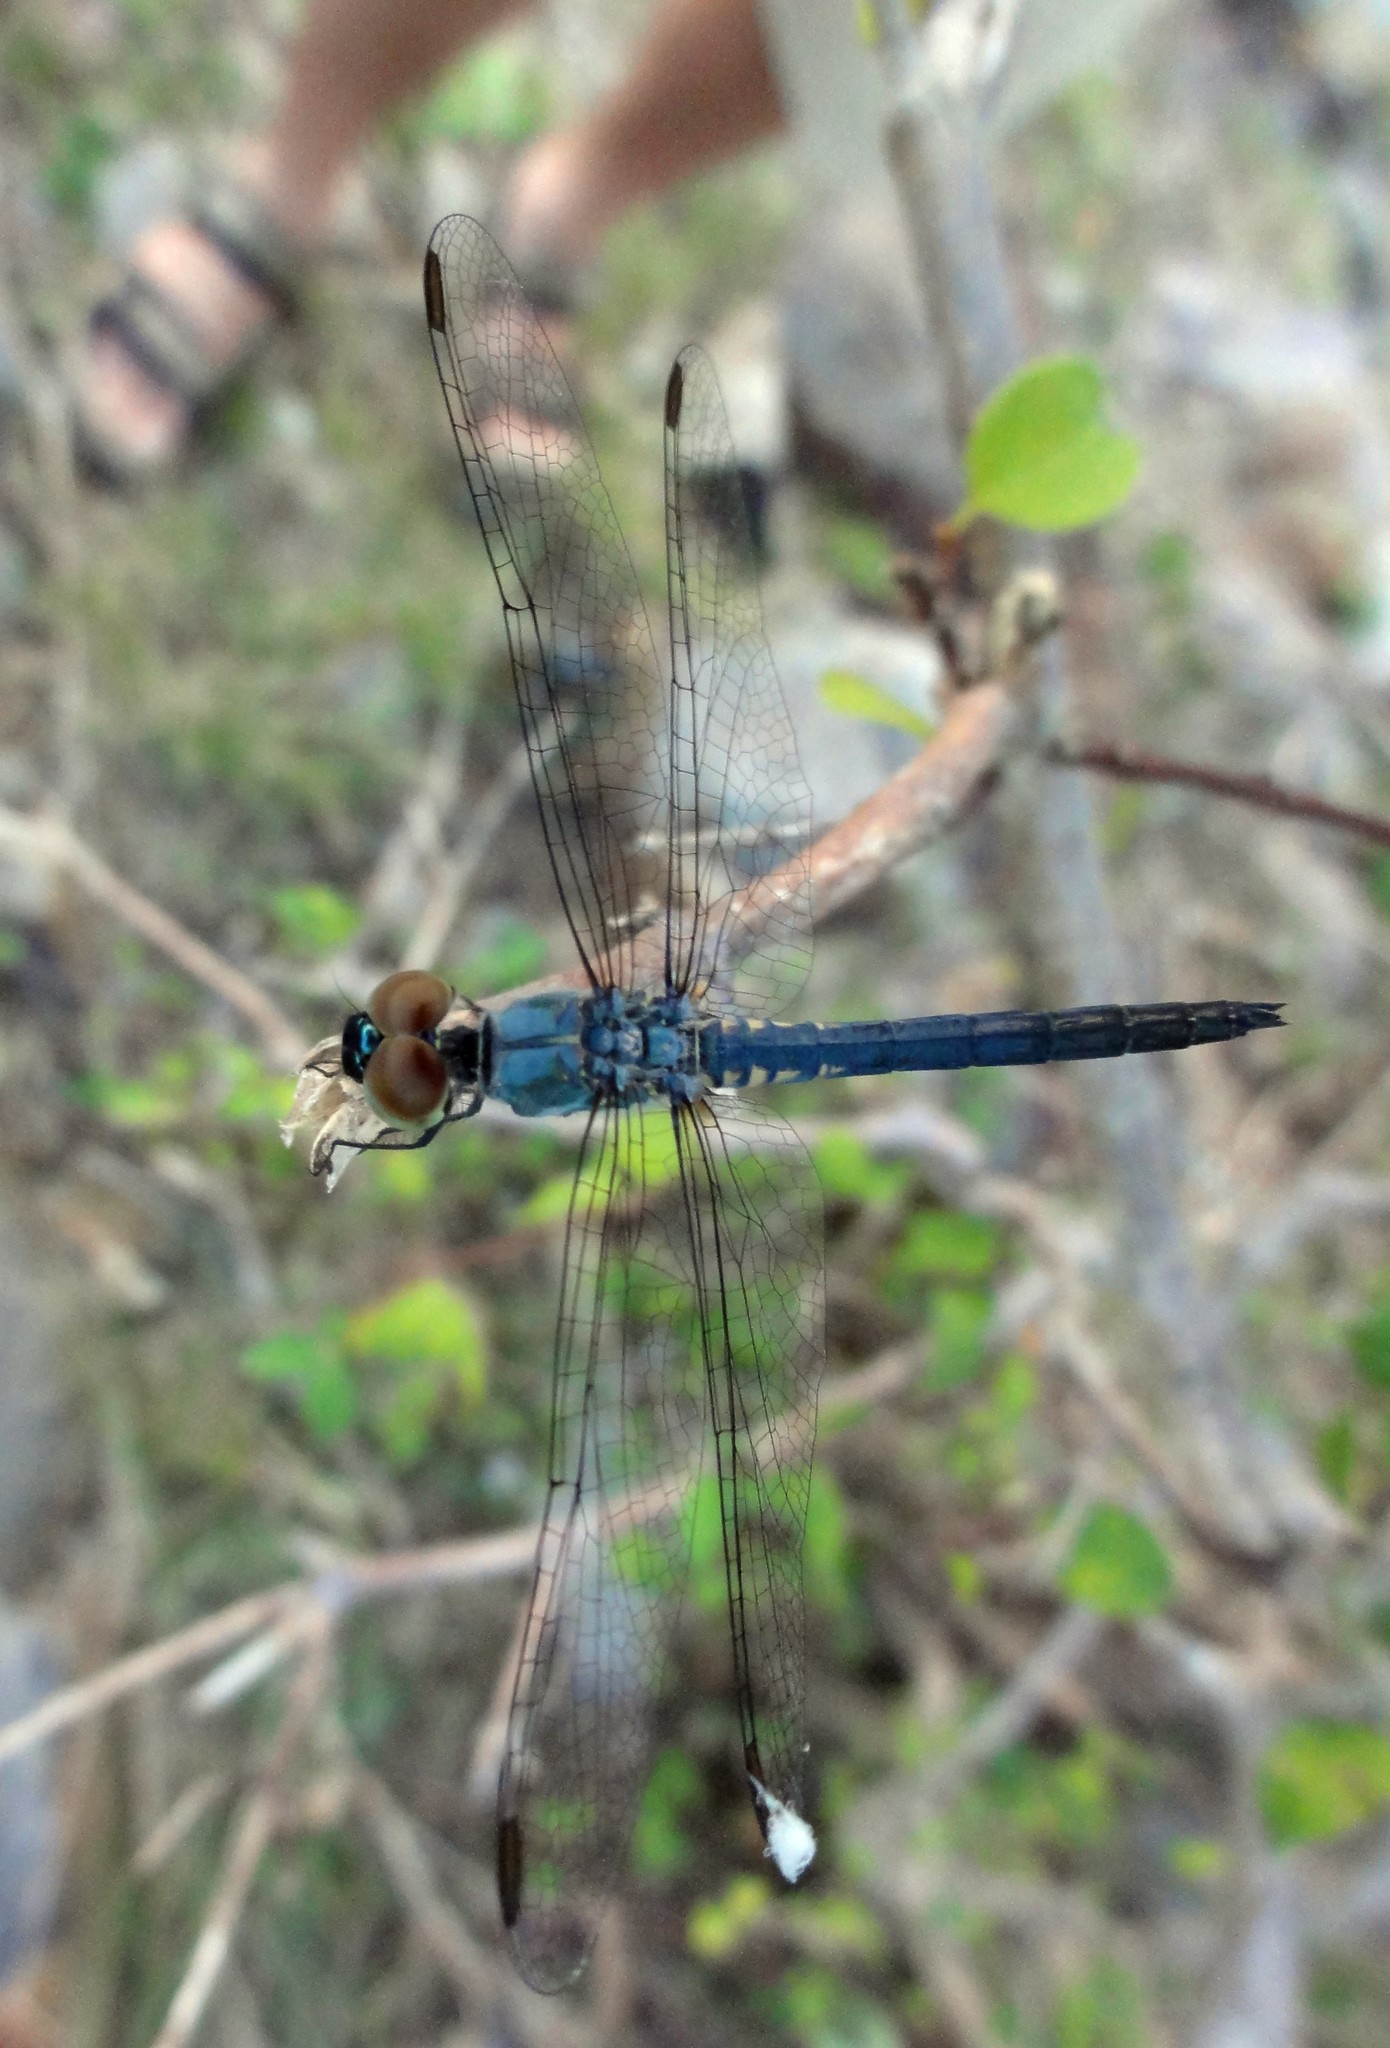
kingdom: Animalia
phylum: Arthropoda
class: Insecta
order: Odonata
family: Libellulidae
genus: Brachydiplax
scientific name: Brachydiplax sobrina
